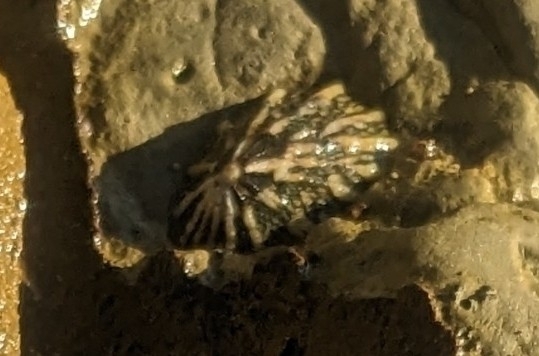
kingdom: Animalia
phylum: Mollusca
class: Gastropoda
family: Lottiidae
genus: Lottia
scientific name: Lottia scabra
